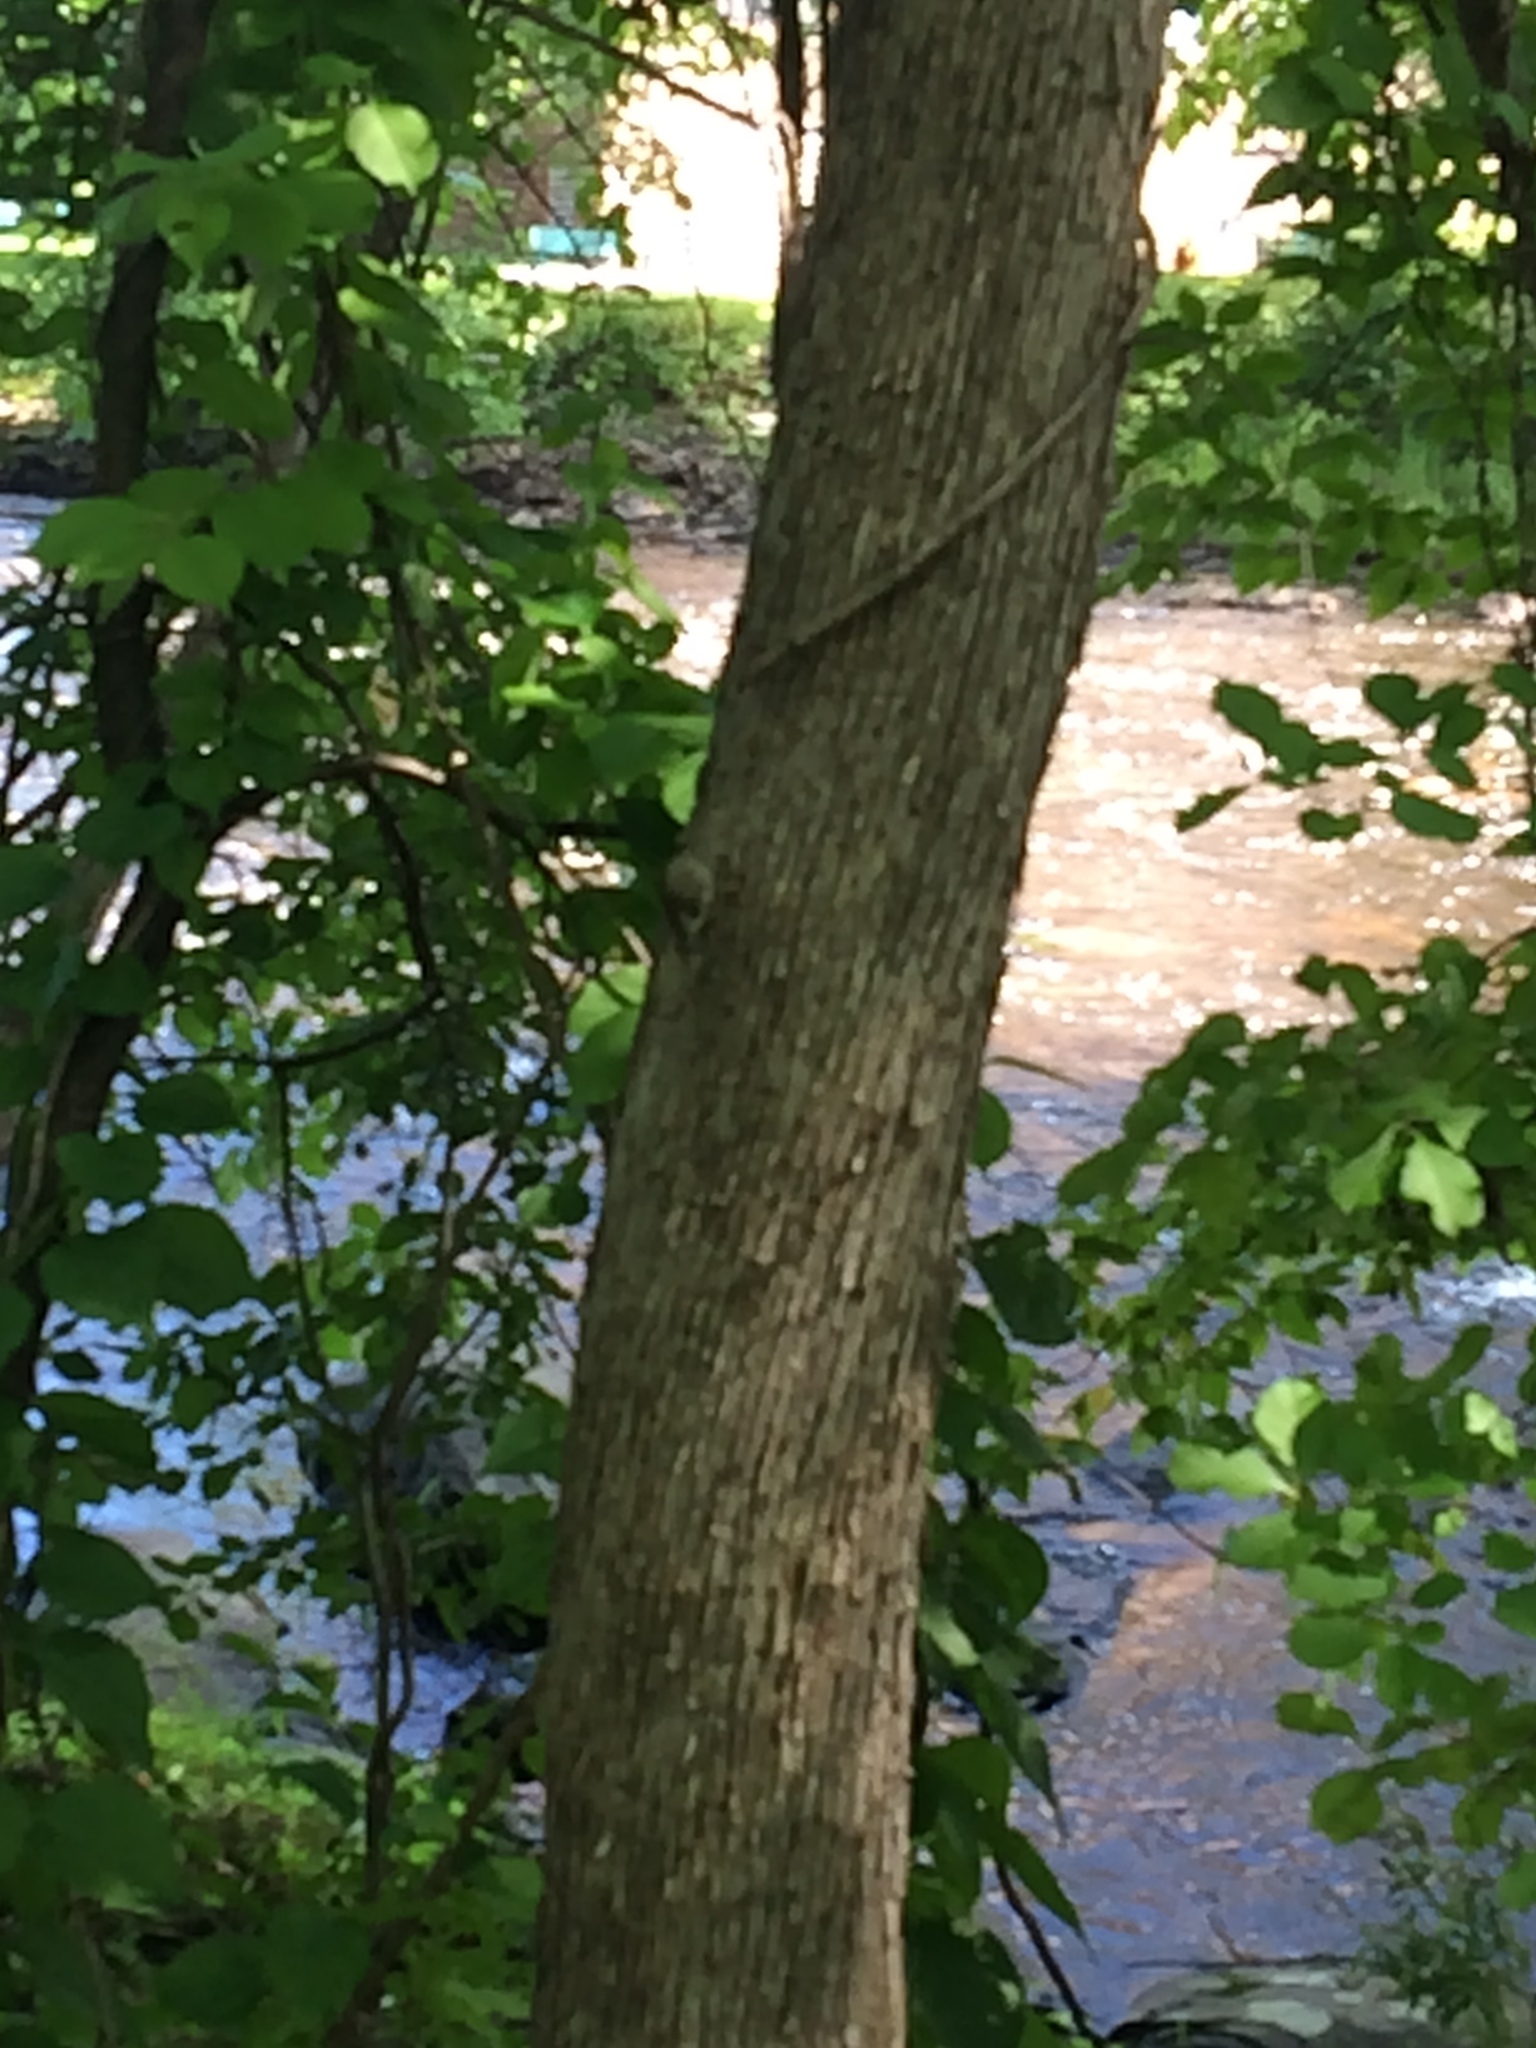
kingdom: Plantae
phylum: Tracheophyta
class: Magnoliopsida
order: Fagales
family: Betulaceae
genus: Ostrya
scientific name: Ostrya virginiana
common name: Ironwood
